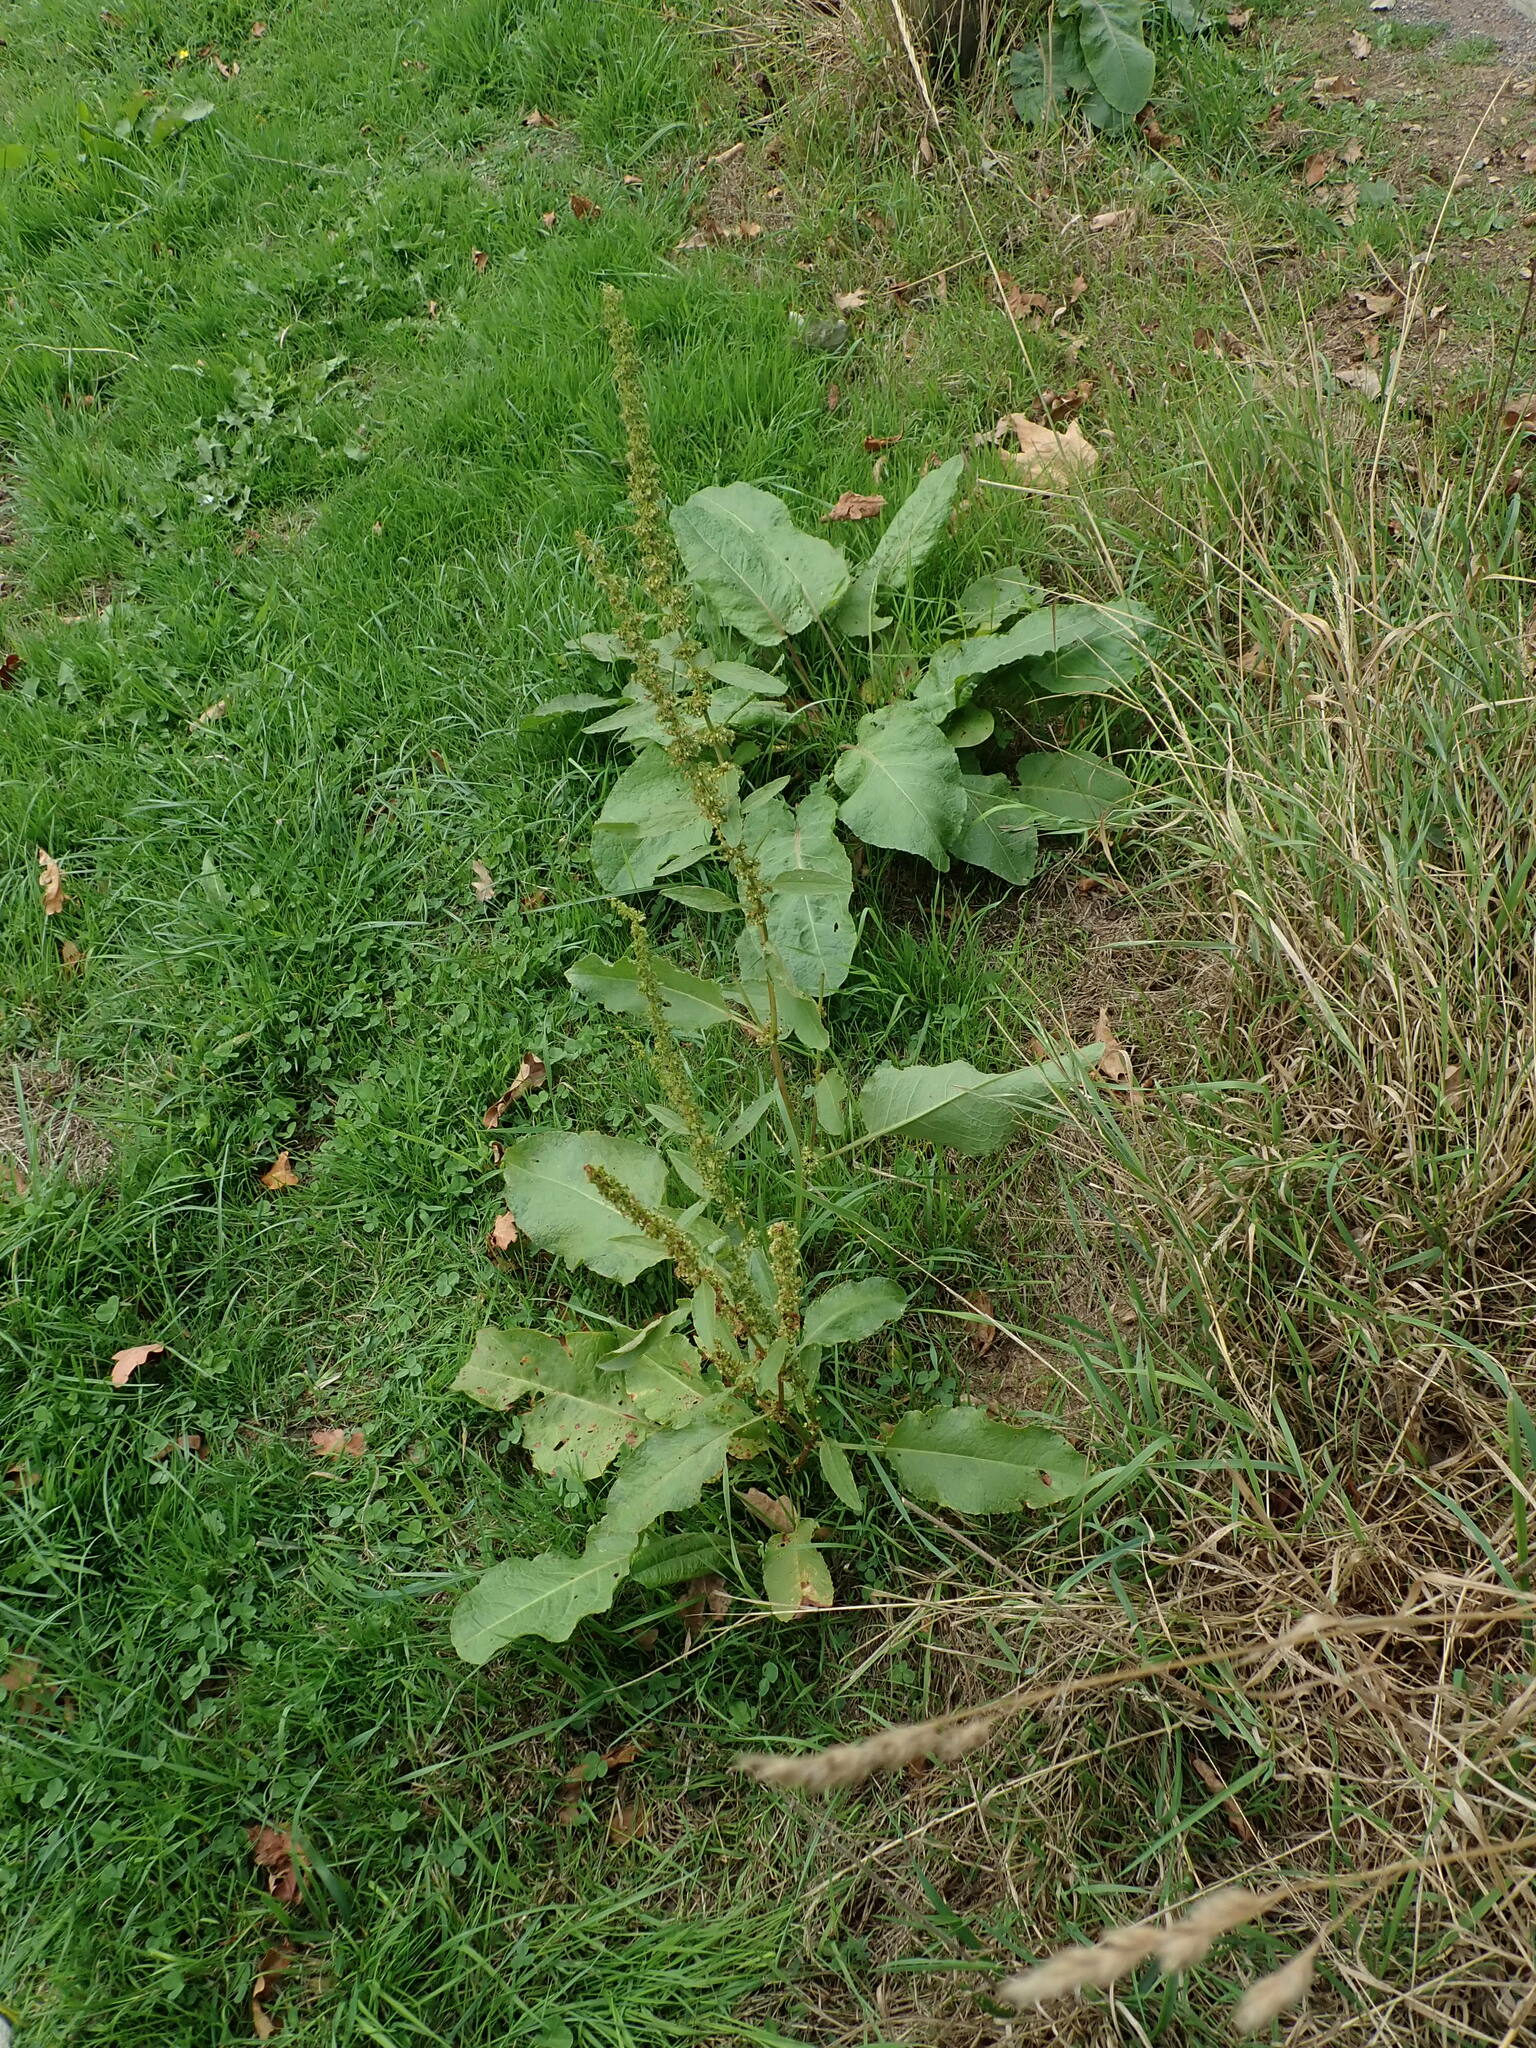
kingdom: Plantae
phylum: Tracheophyta
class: Magnoliopsida
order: Caryophyllales
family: Polygonaceae
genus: Rumex
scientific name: Rumex obtusifolius
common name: Bitter dock
